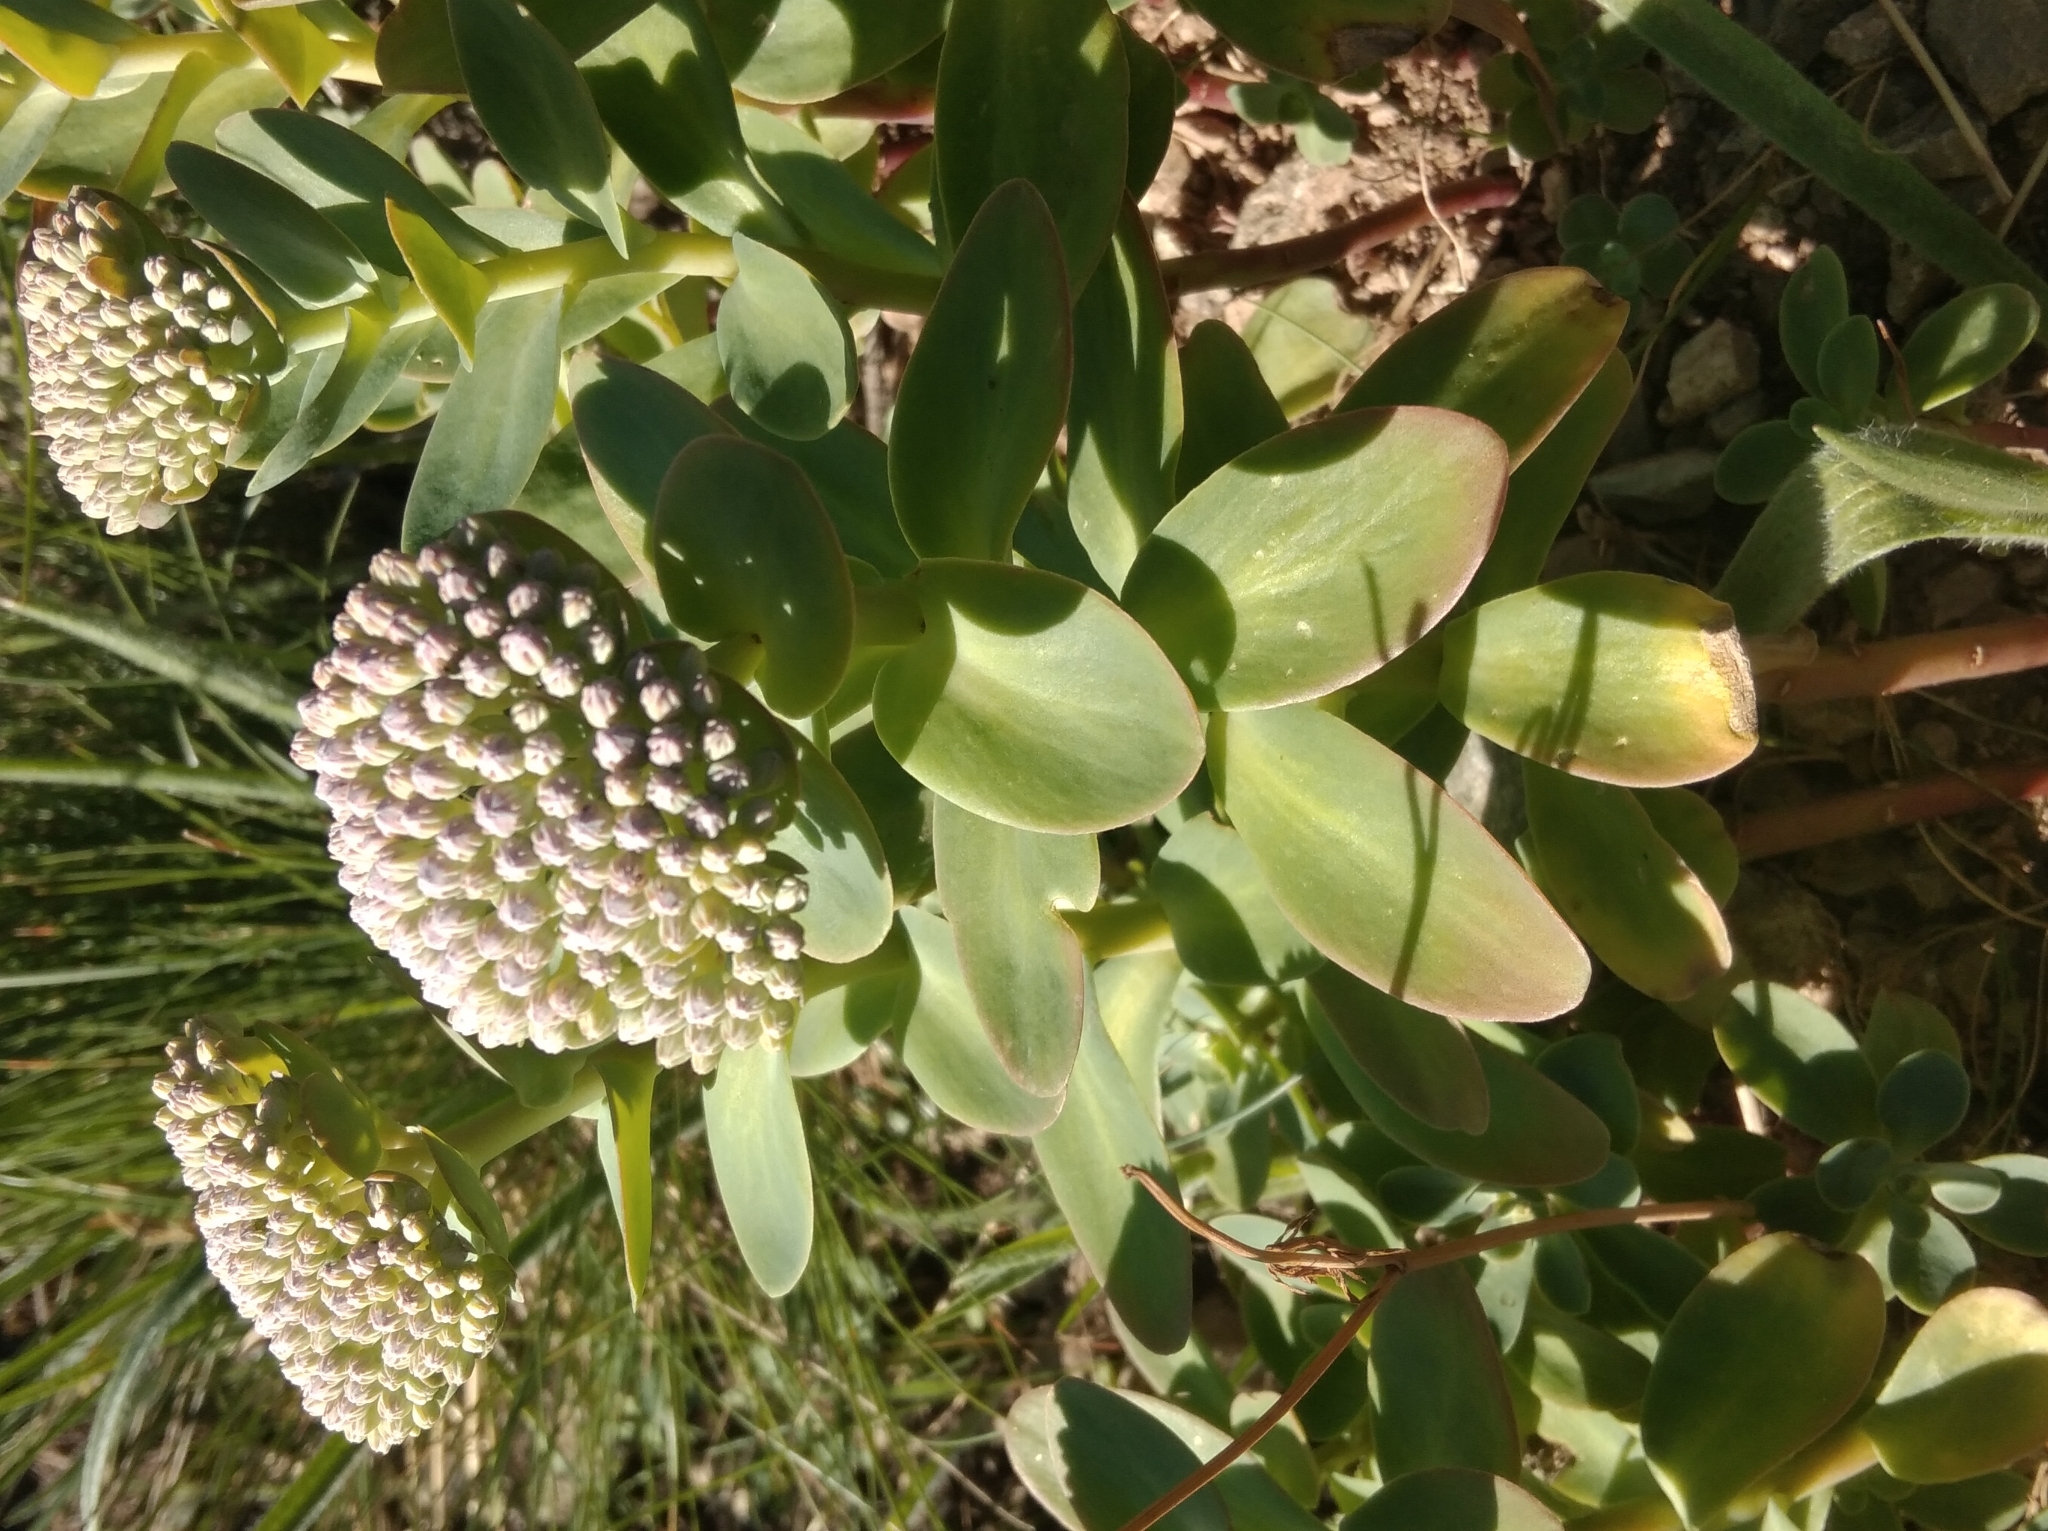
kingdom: Plantae
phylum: Tracheophyta
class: Magnoliopsida
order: Saxifragales
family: Crassulaceae
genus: Hylotelephium
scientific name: Hylotelephium anacampseros
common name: Love-restorer
